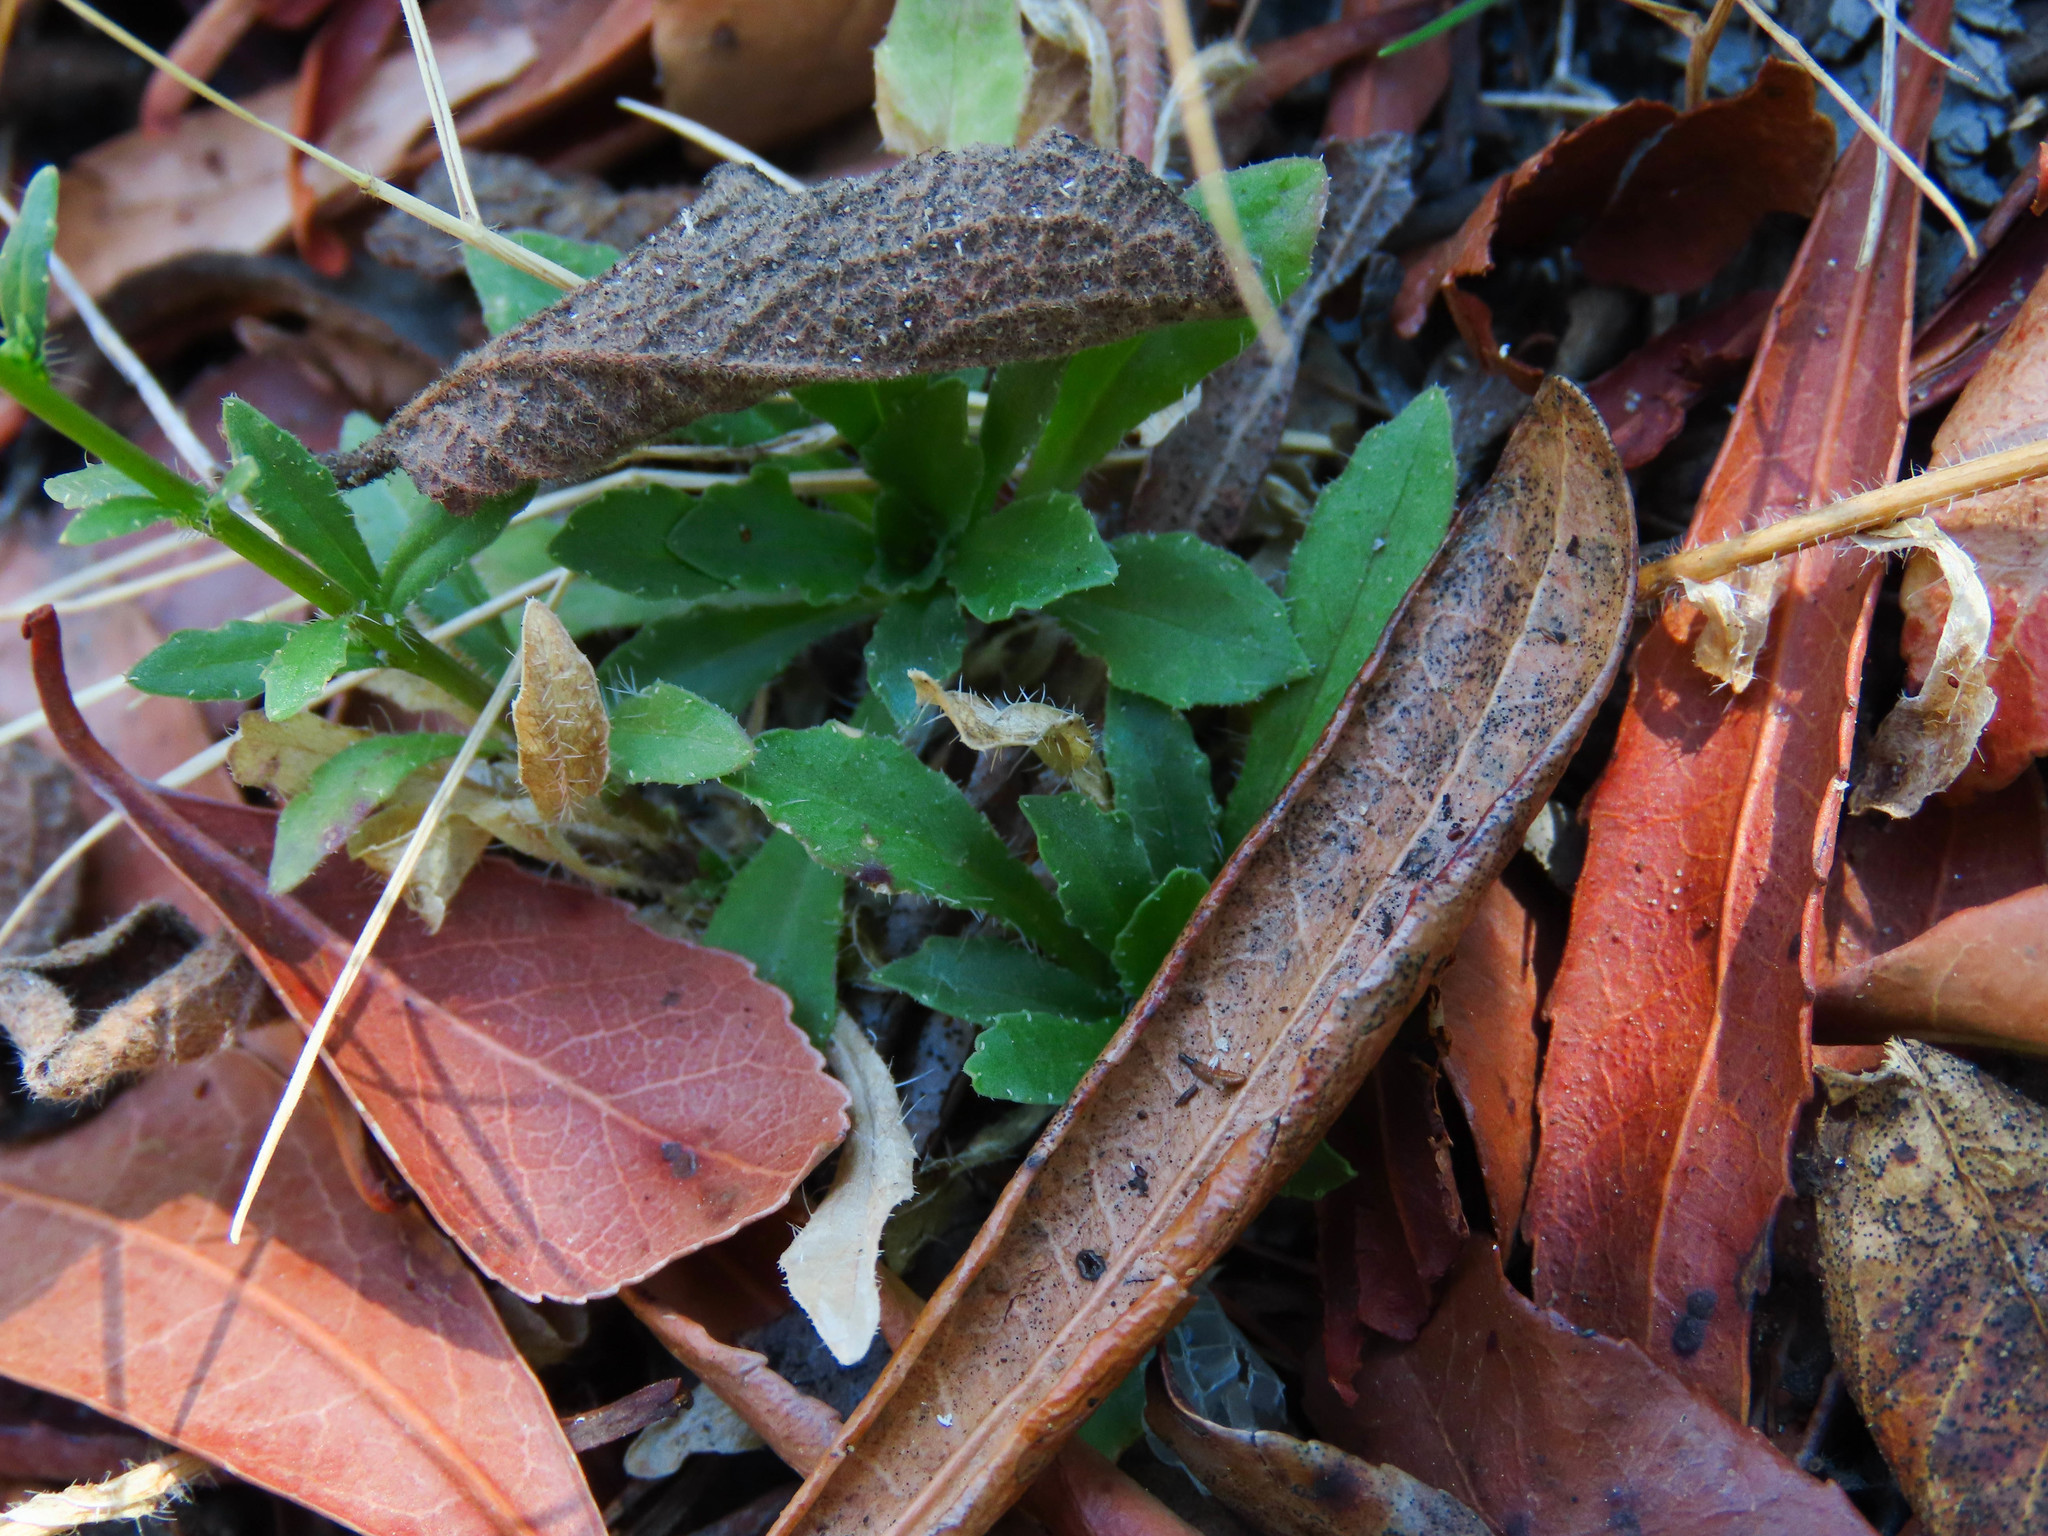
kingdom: Plantae
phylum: Tracheophyta
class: Magnoliopsida
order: Asterales
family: Campanulaceae
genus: Jasione
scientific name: Jasione montana
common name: Sheep's-bit
